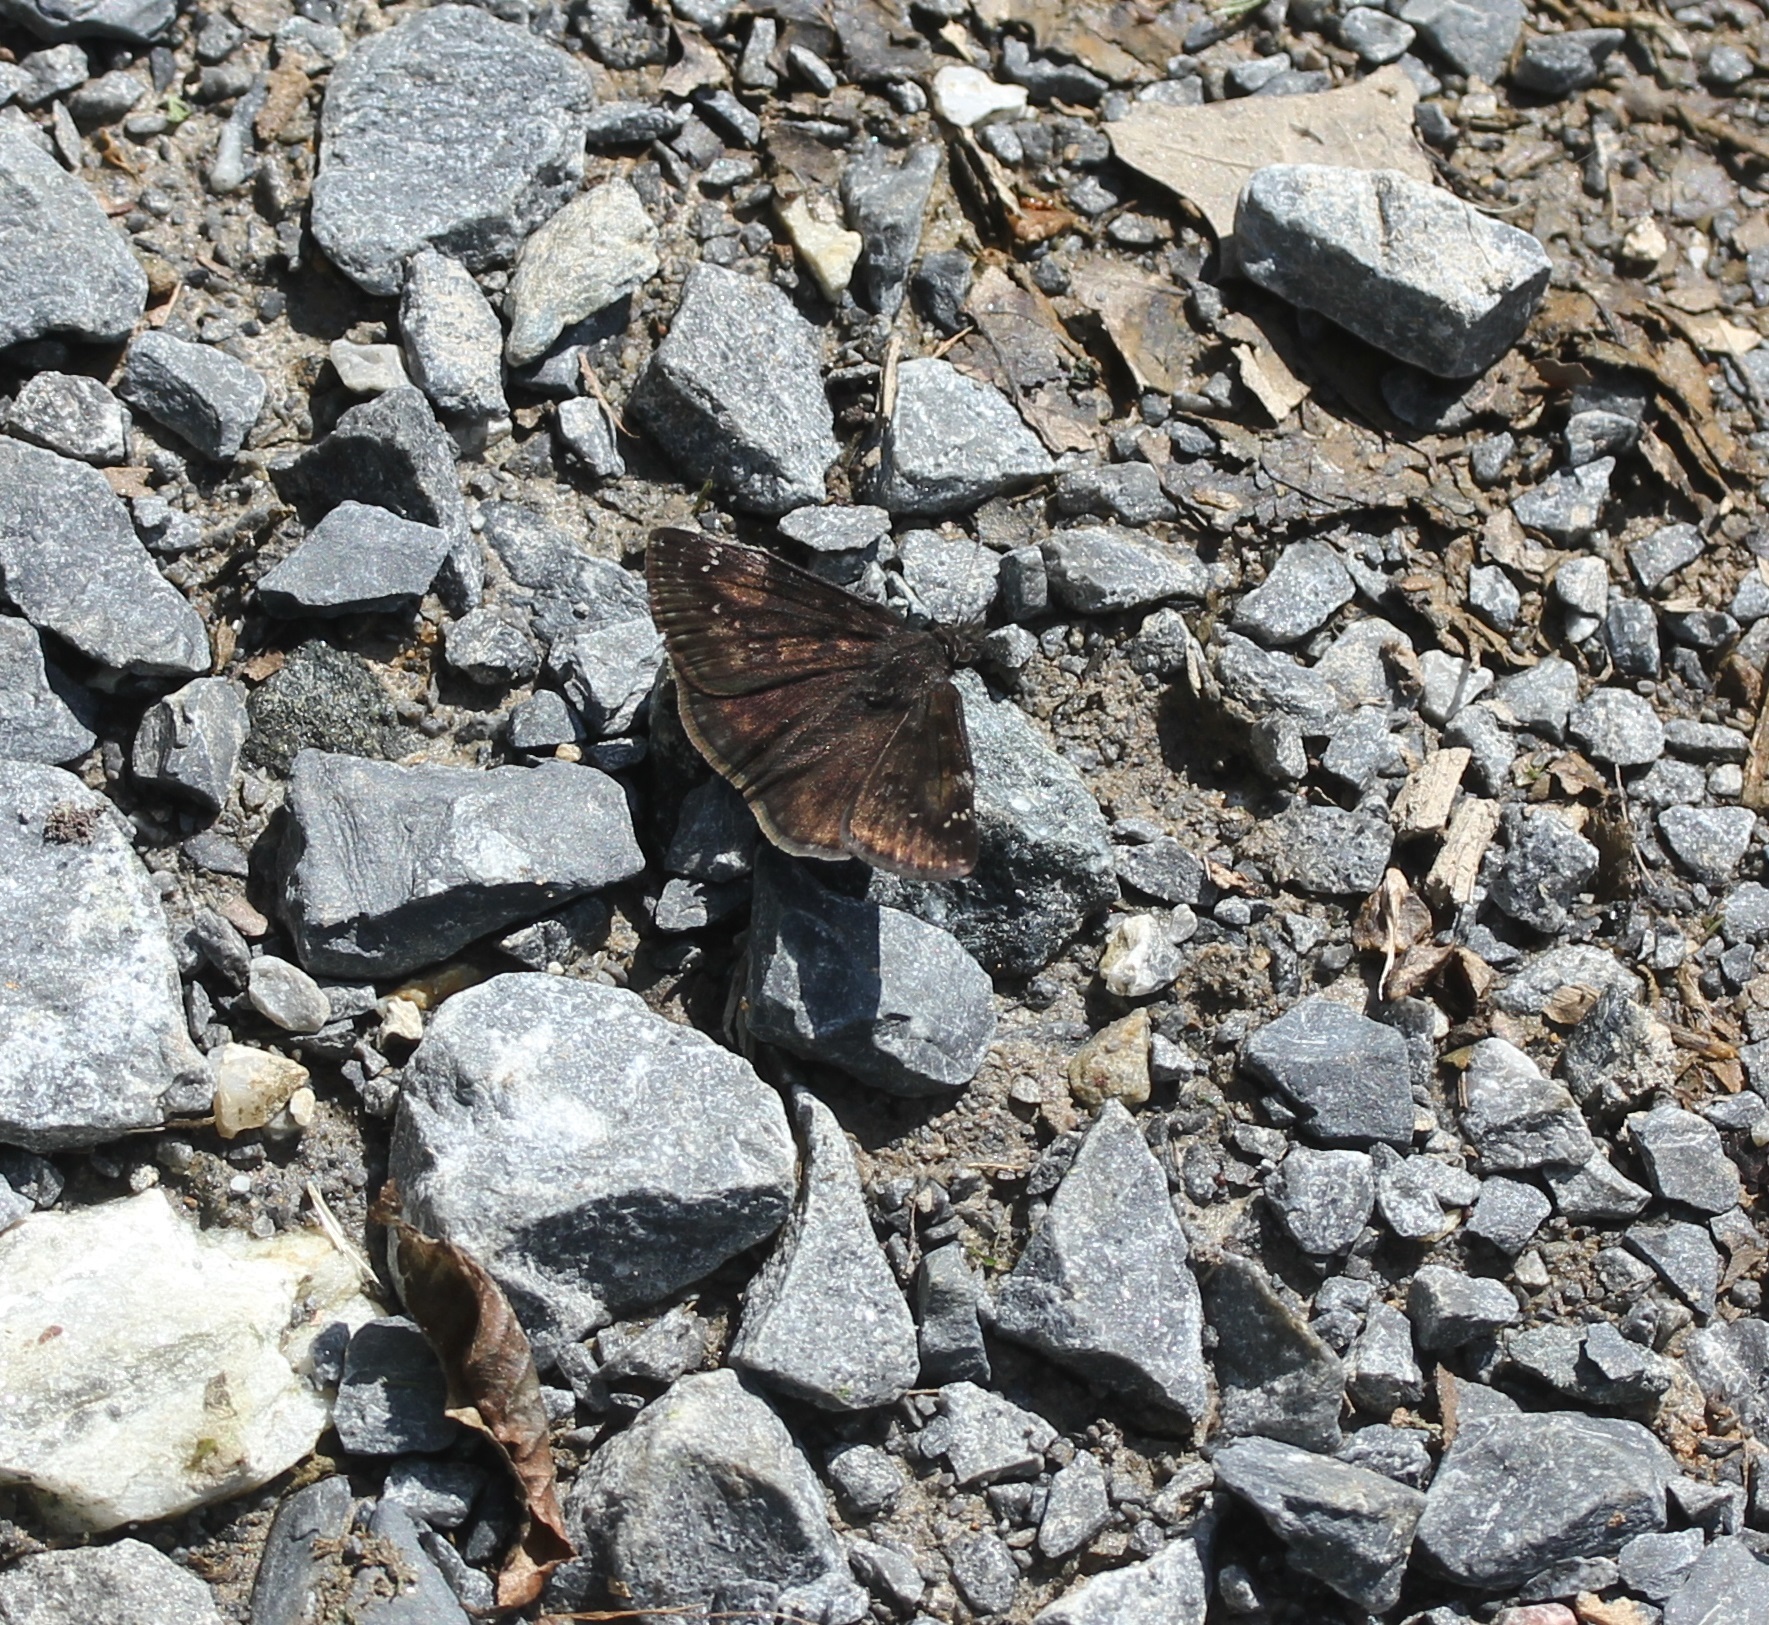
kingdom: Animalia
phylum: Arthropoda
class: Insecta
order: Lepidoptera
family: Hesperiidae
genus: Erynnis
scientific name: Erynnis baptisiae
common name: Wild indigo duskywing
